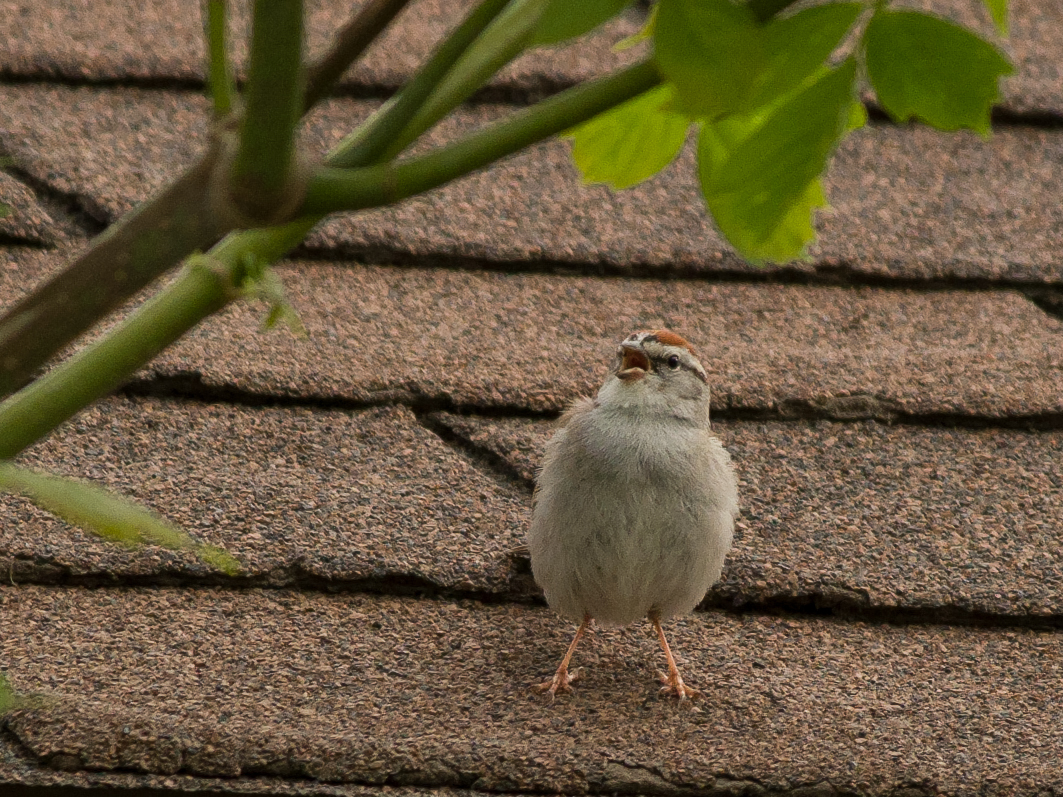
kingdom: Animalia
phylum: Chordata
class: Aves
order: Passeriformes
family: Passerellidae
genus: Spizella
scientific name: Spizella passerina
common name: Chipping sparrow
